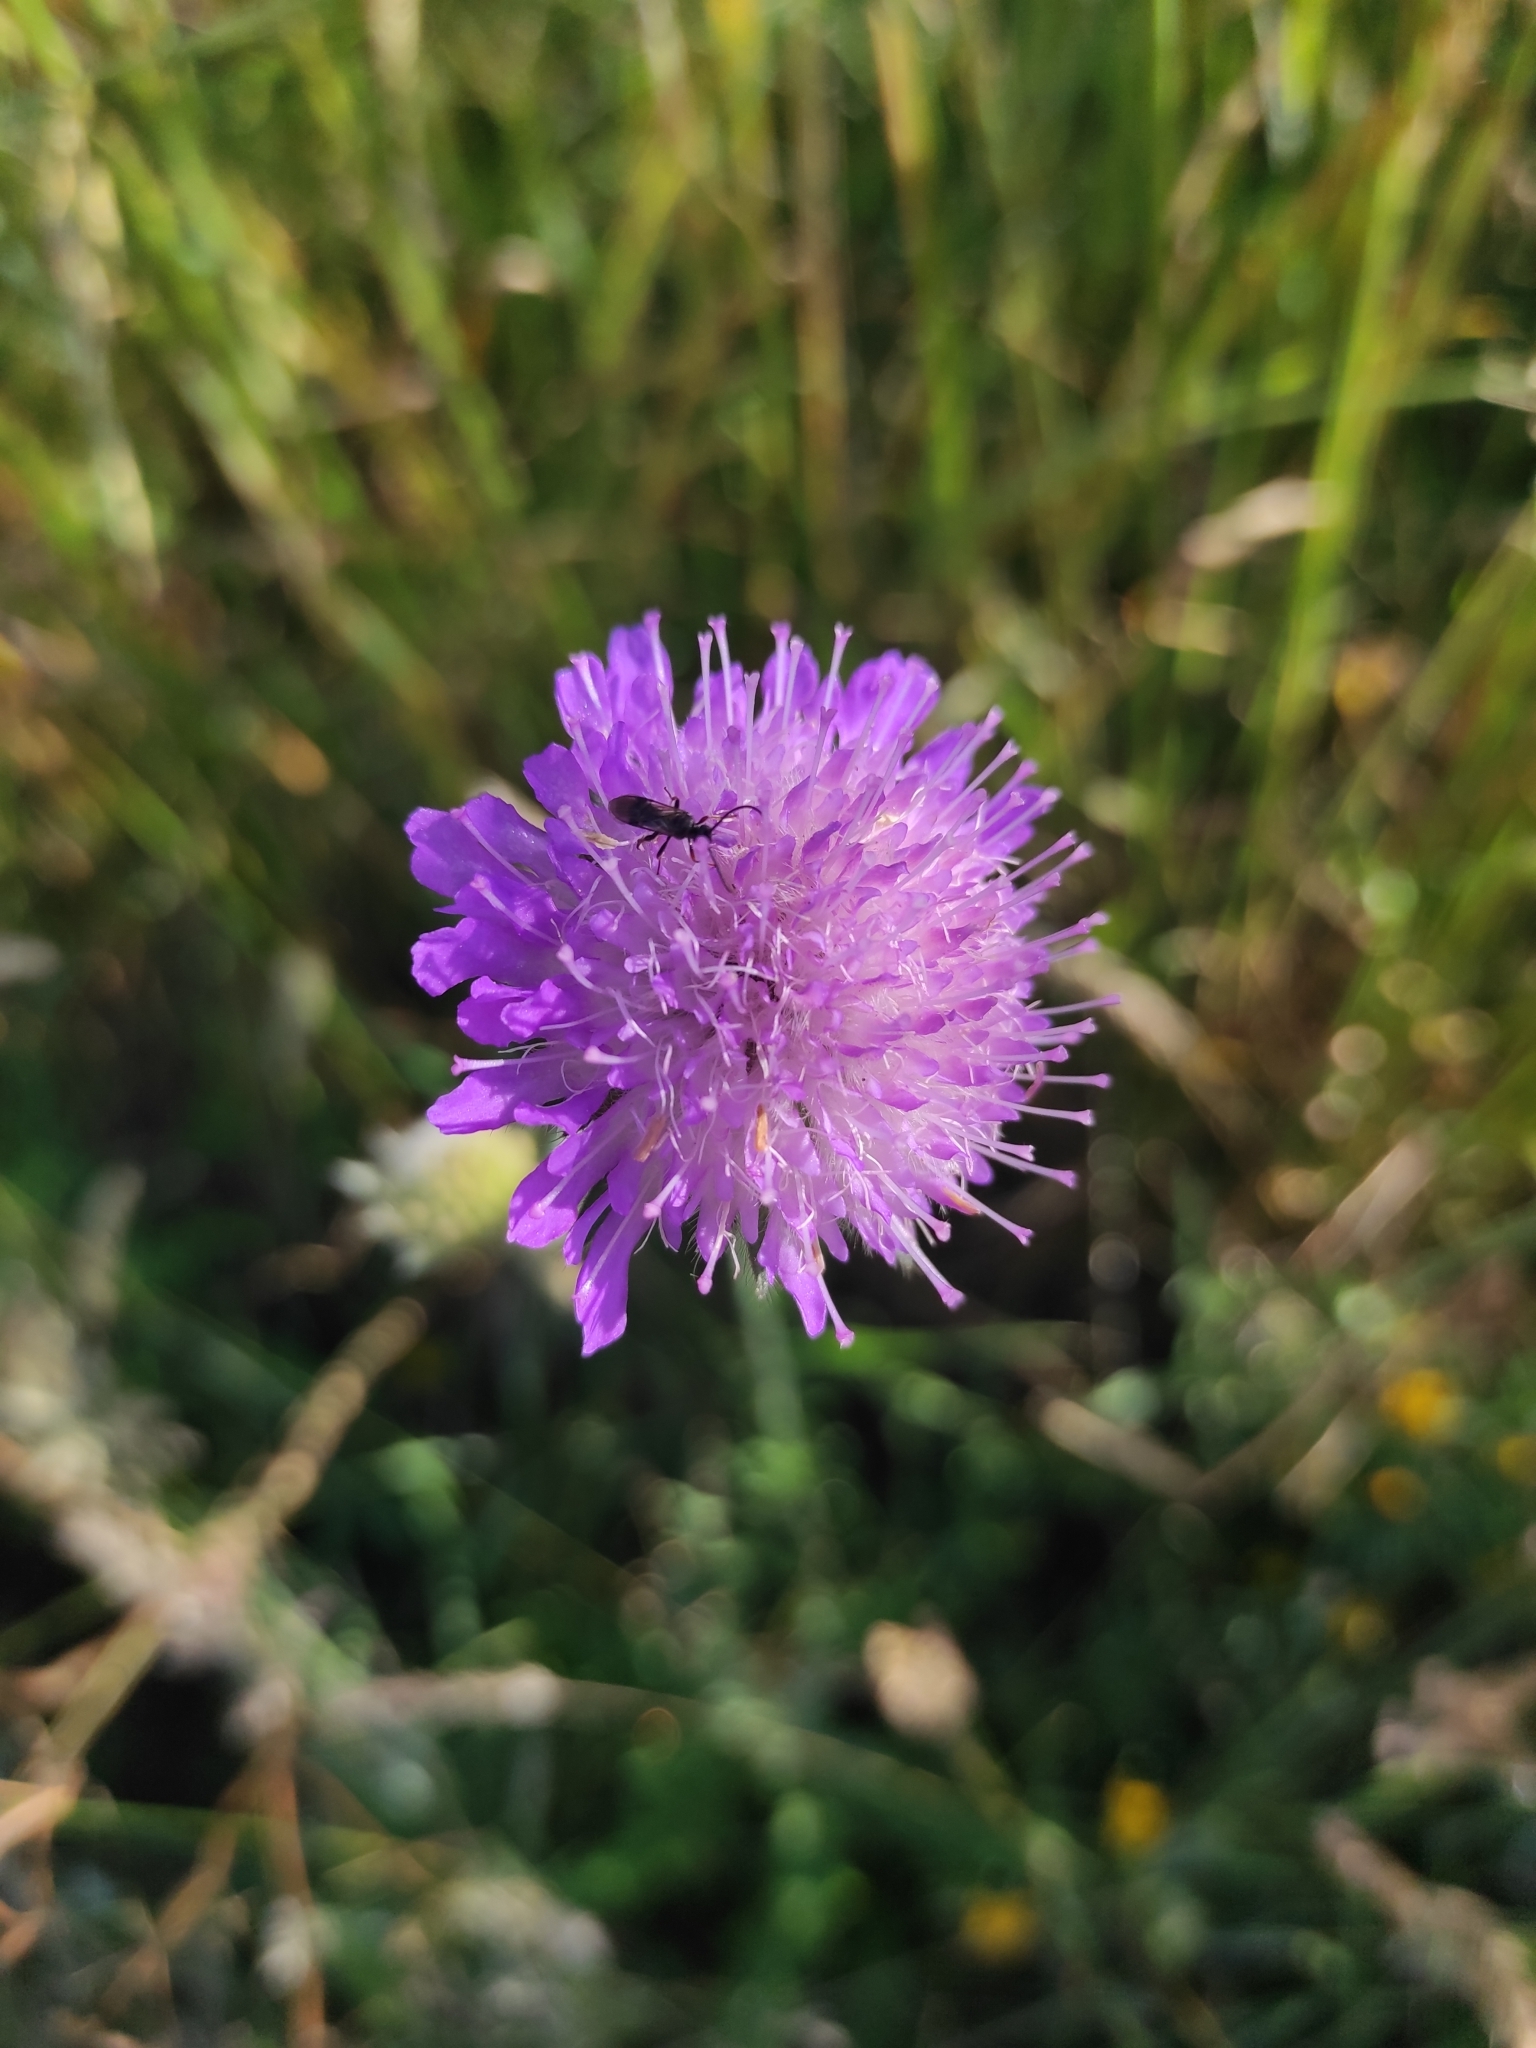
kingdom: Plantae
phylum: Tracheophyta
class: Magnoliopsida
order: Dipsacales
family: Caprifoliaceae
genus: Knautia
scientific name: Knautia arvensis
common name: Field scabiosa
